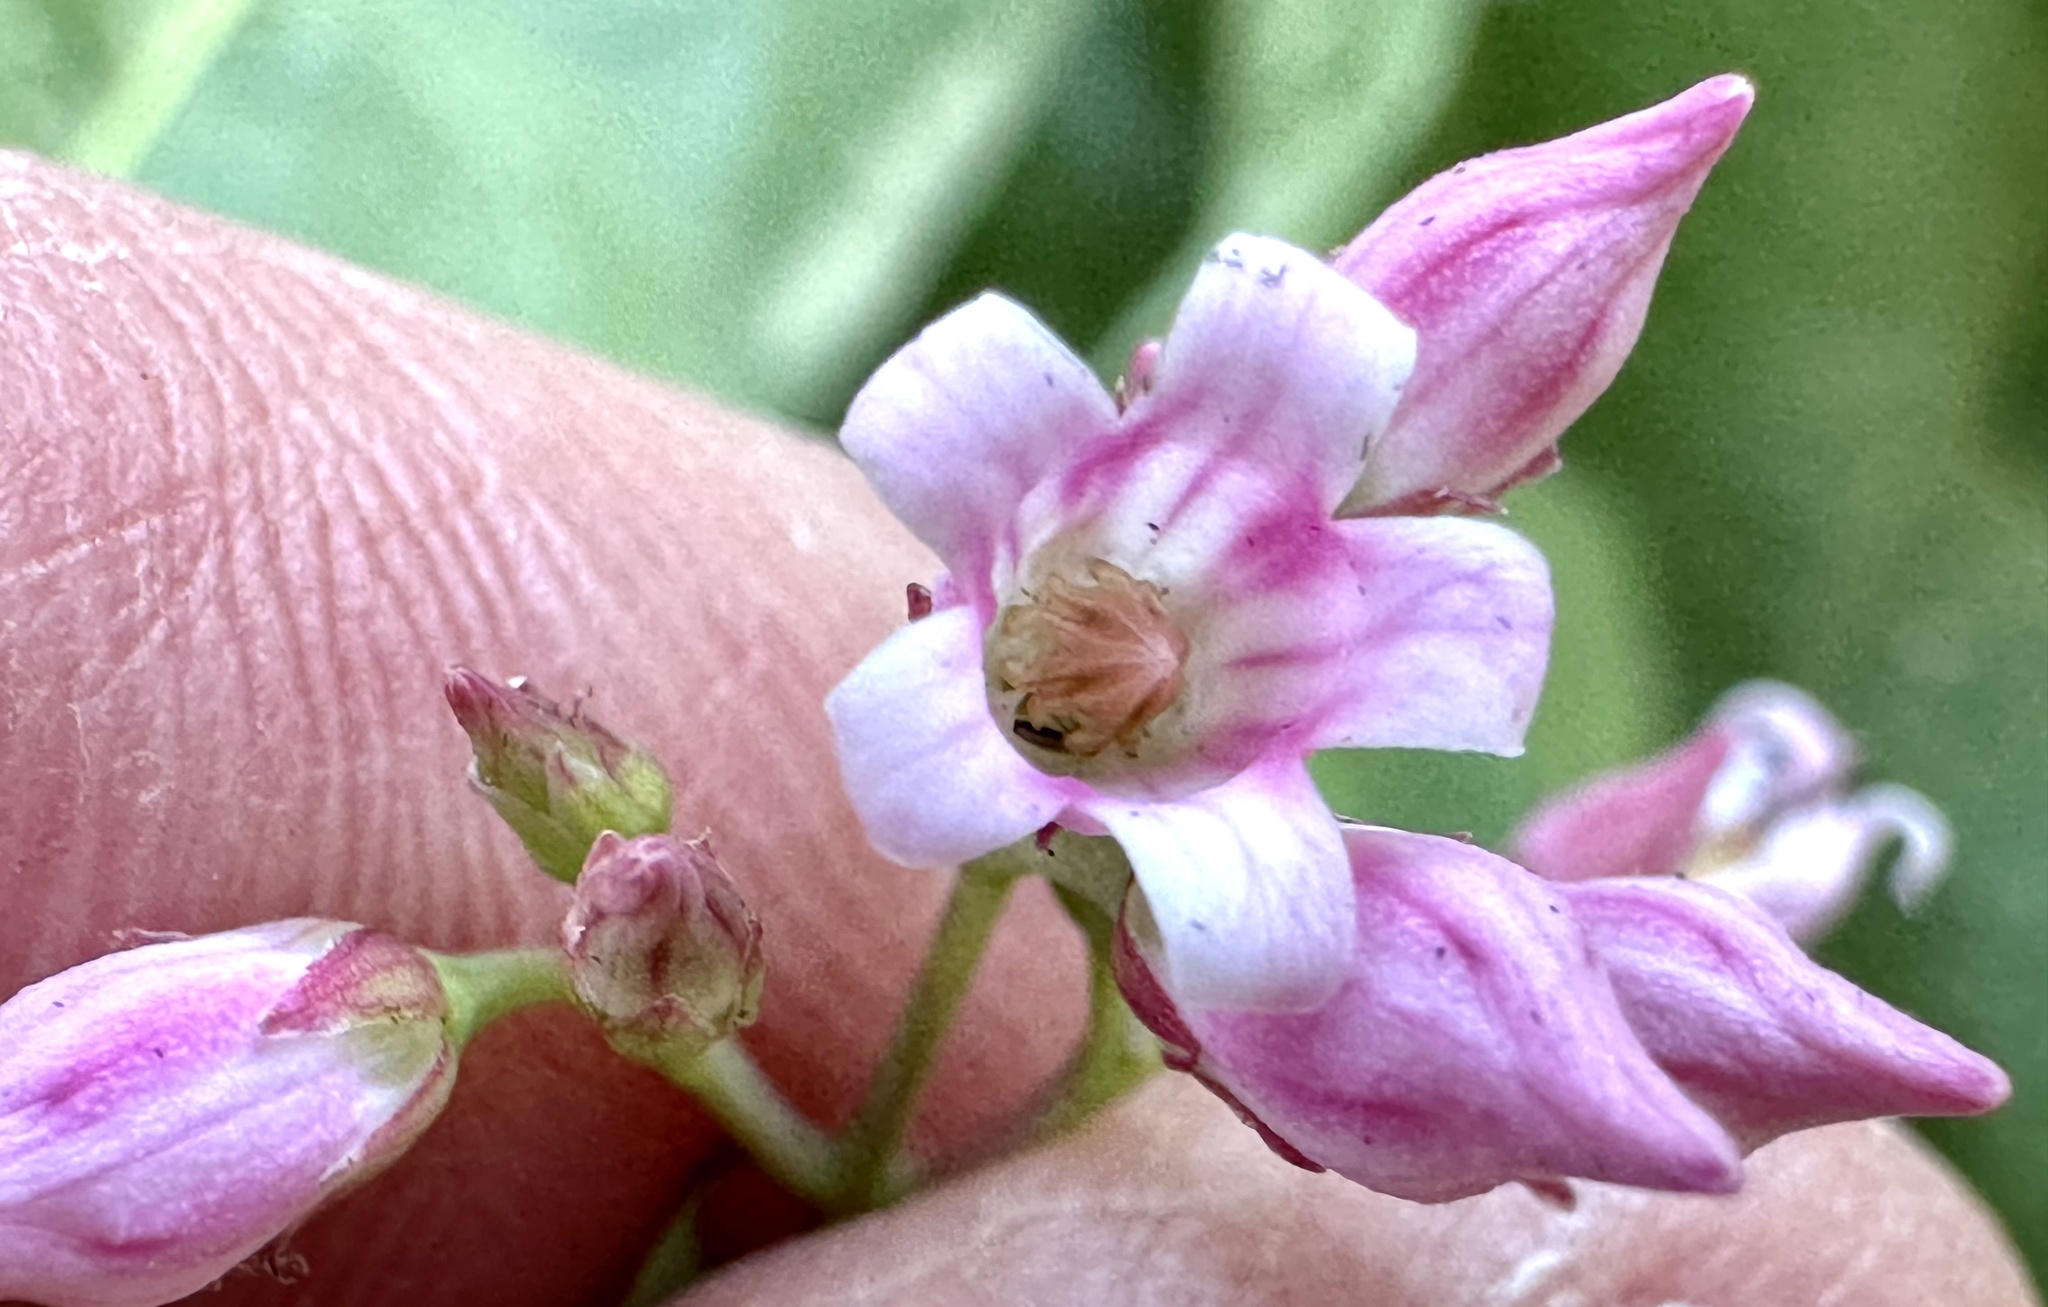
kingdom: Plantae
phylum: Tracheophyta
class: Magnoliopsida
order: Gentianales
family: Apocynaceae
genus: Apocynum
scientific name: Apocynum androsaemifolium
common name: Spreading dogbane
